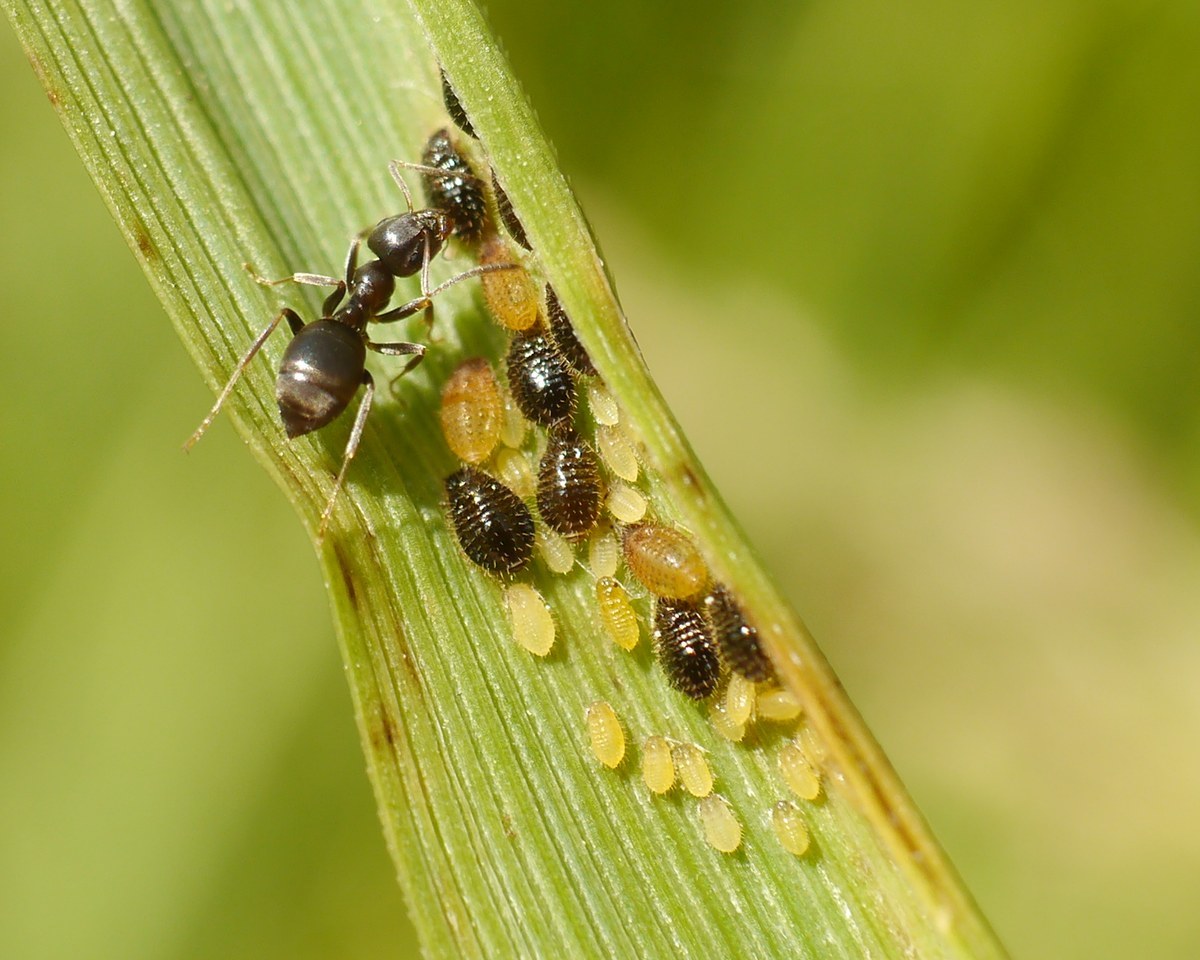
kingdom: Animalia
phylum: Arthropoda
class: Insecta
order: Hemiptera
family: Aphididae
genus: Sipha
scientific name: Sipha maydis
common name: Aphid
